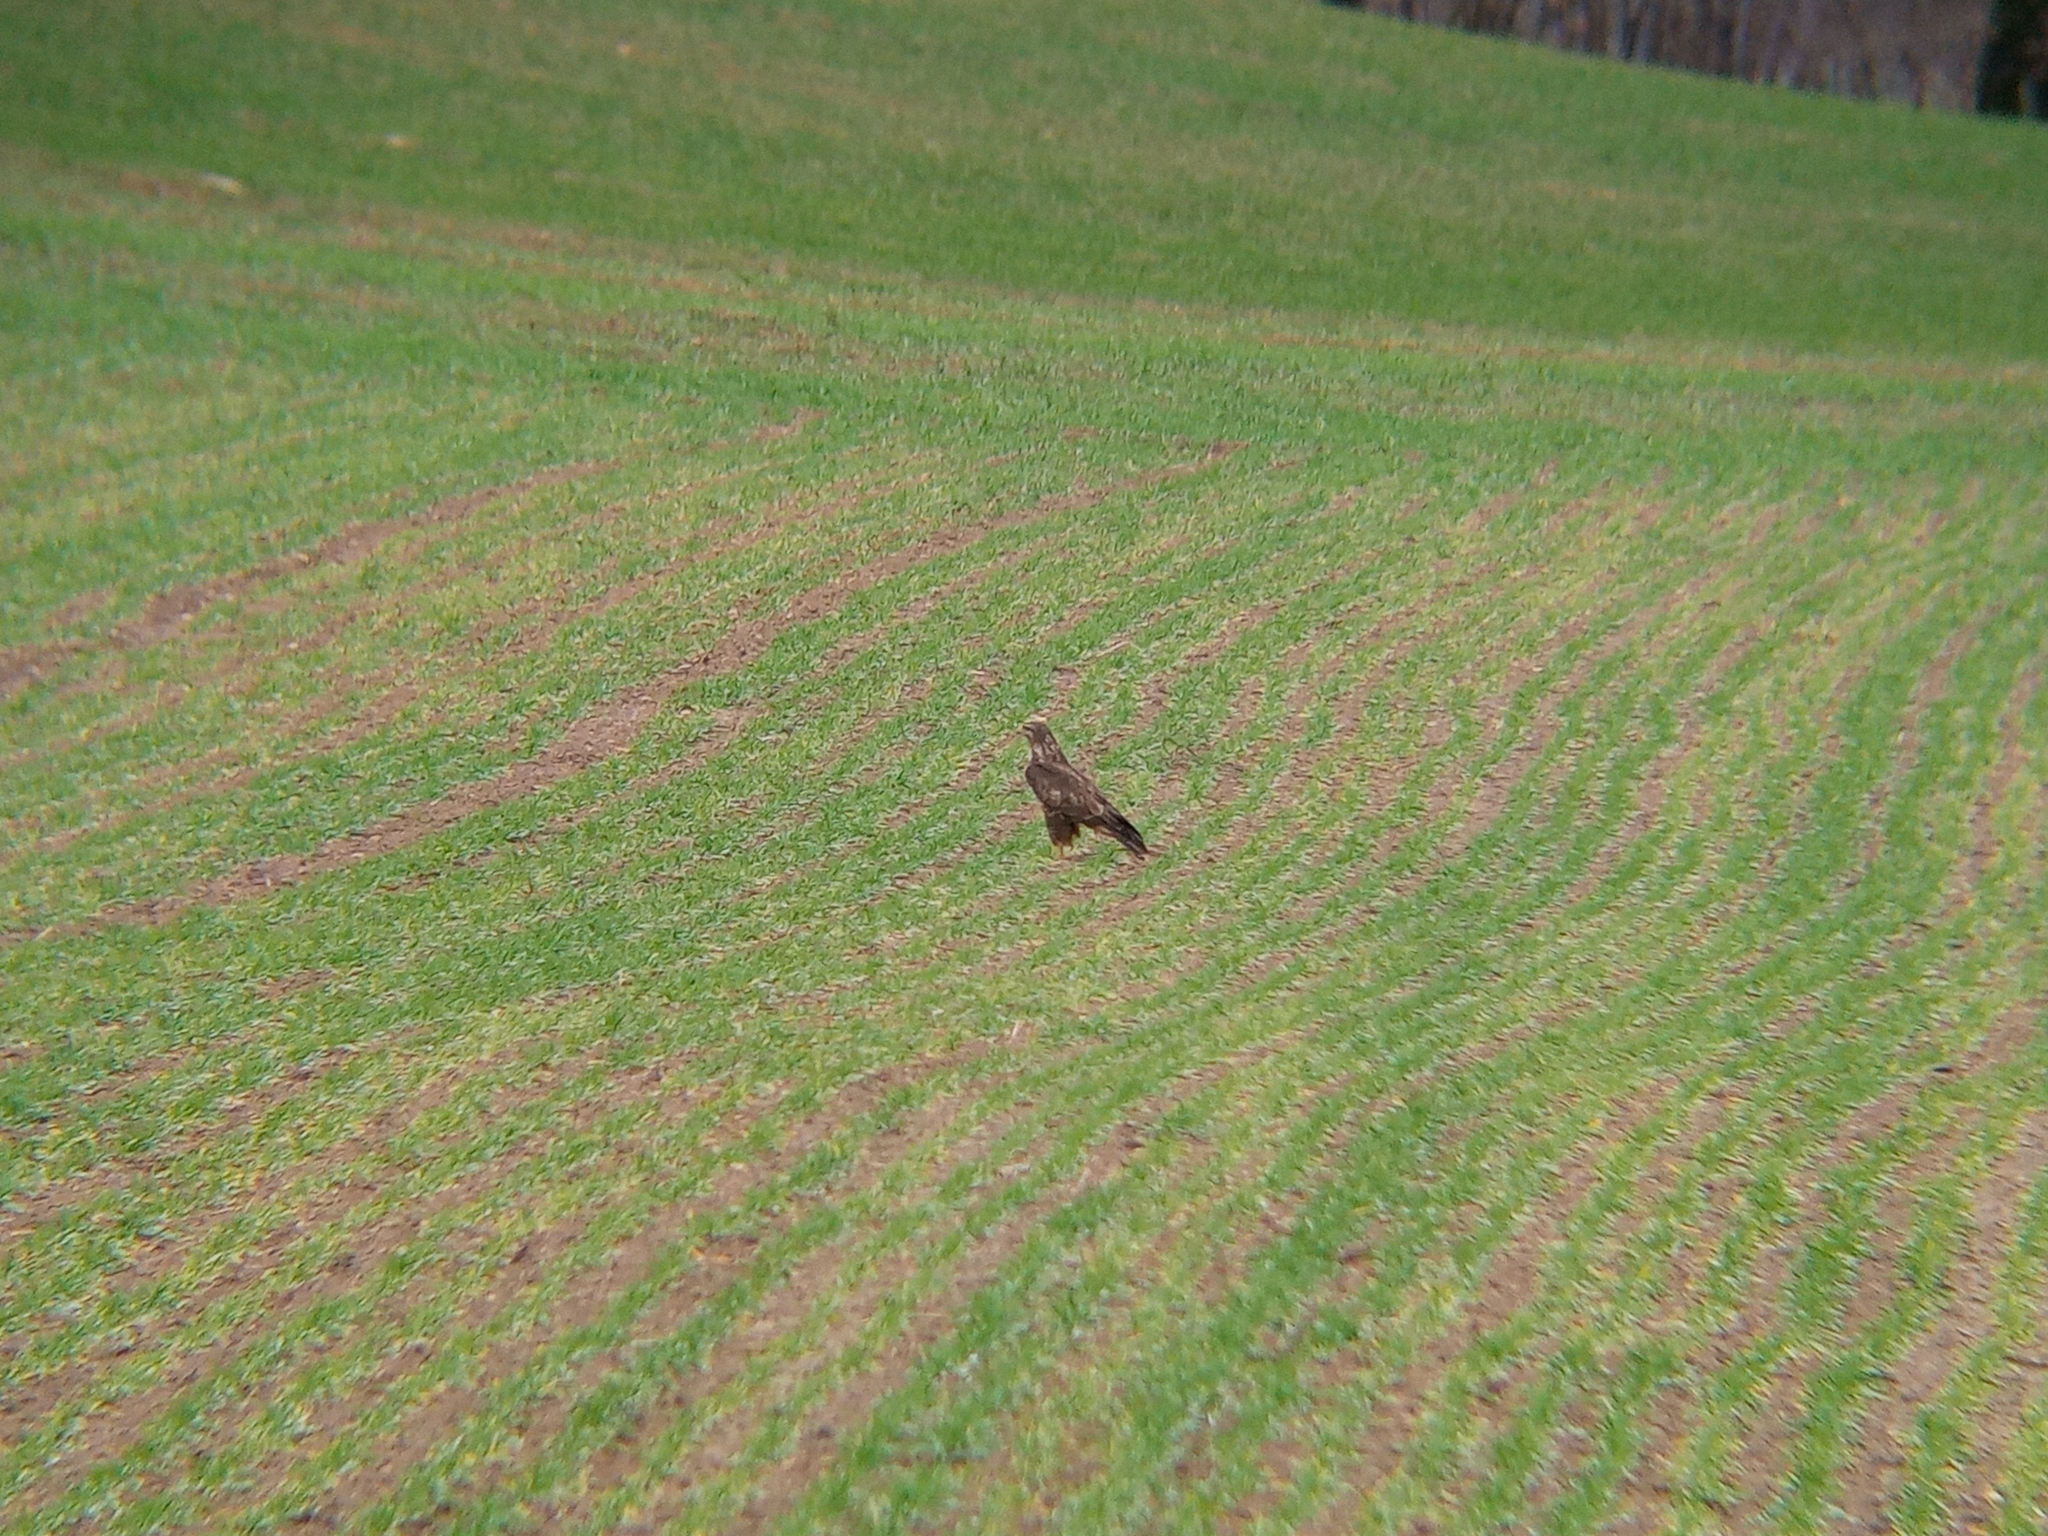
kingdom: Animalia
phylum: Chordata
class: Aves
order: Accipitriformes
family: Accipitridae
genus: Buteo
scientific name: Buteo buteo
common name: Common buzzard
